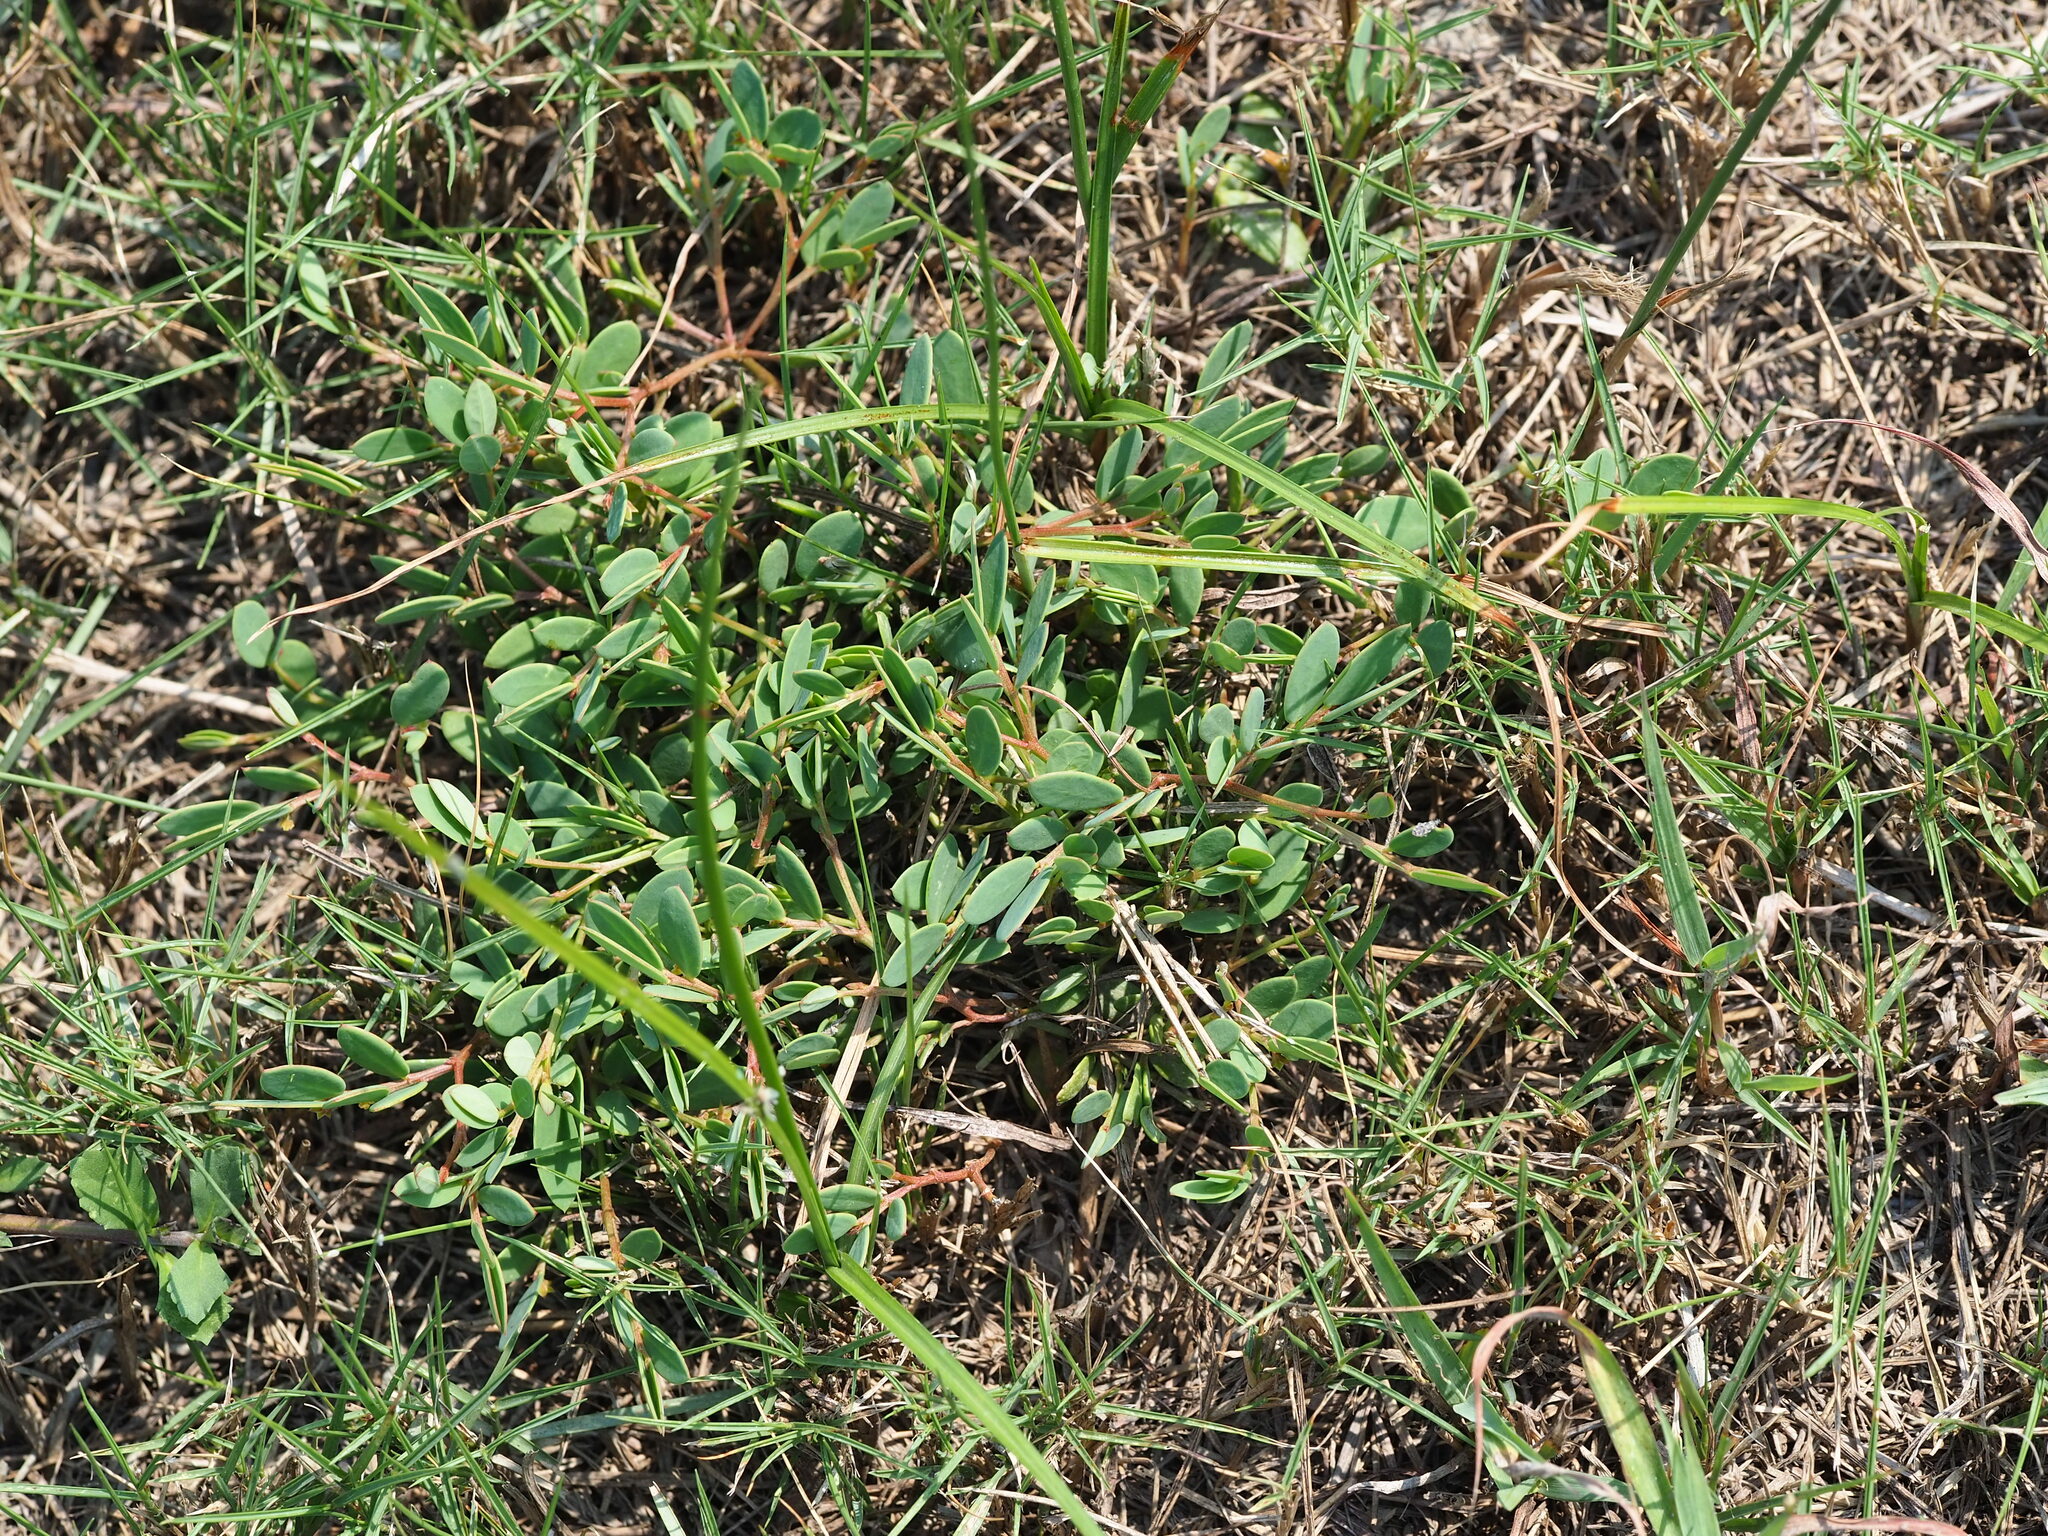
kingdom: Plantae
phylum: Tracheophyta
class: Magnoliopsida
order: Malpighiales
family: Phyllanthaceae
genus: Synostemon
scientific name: Synostemon bacciformis
